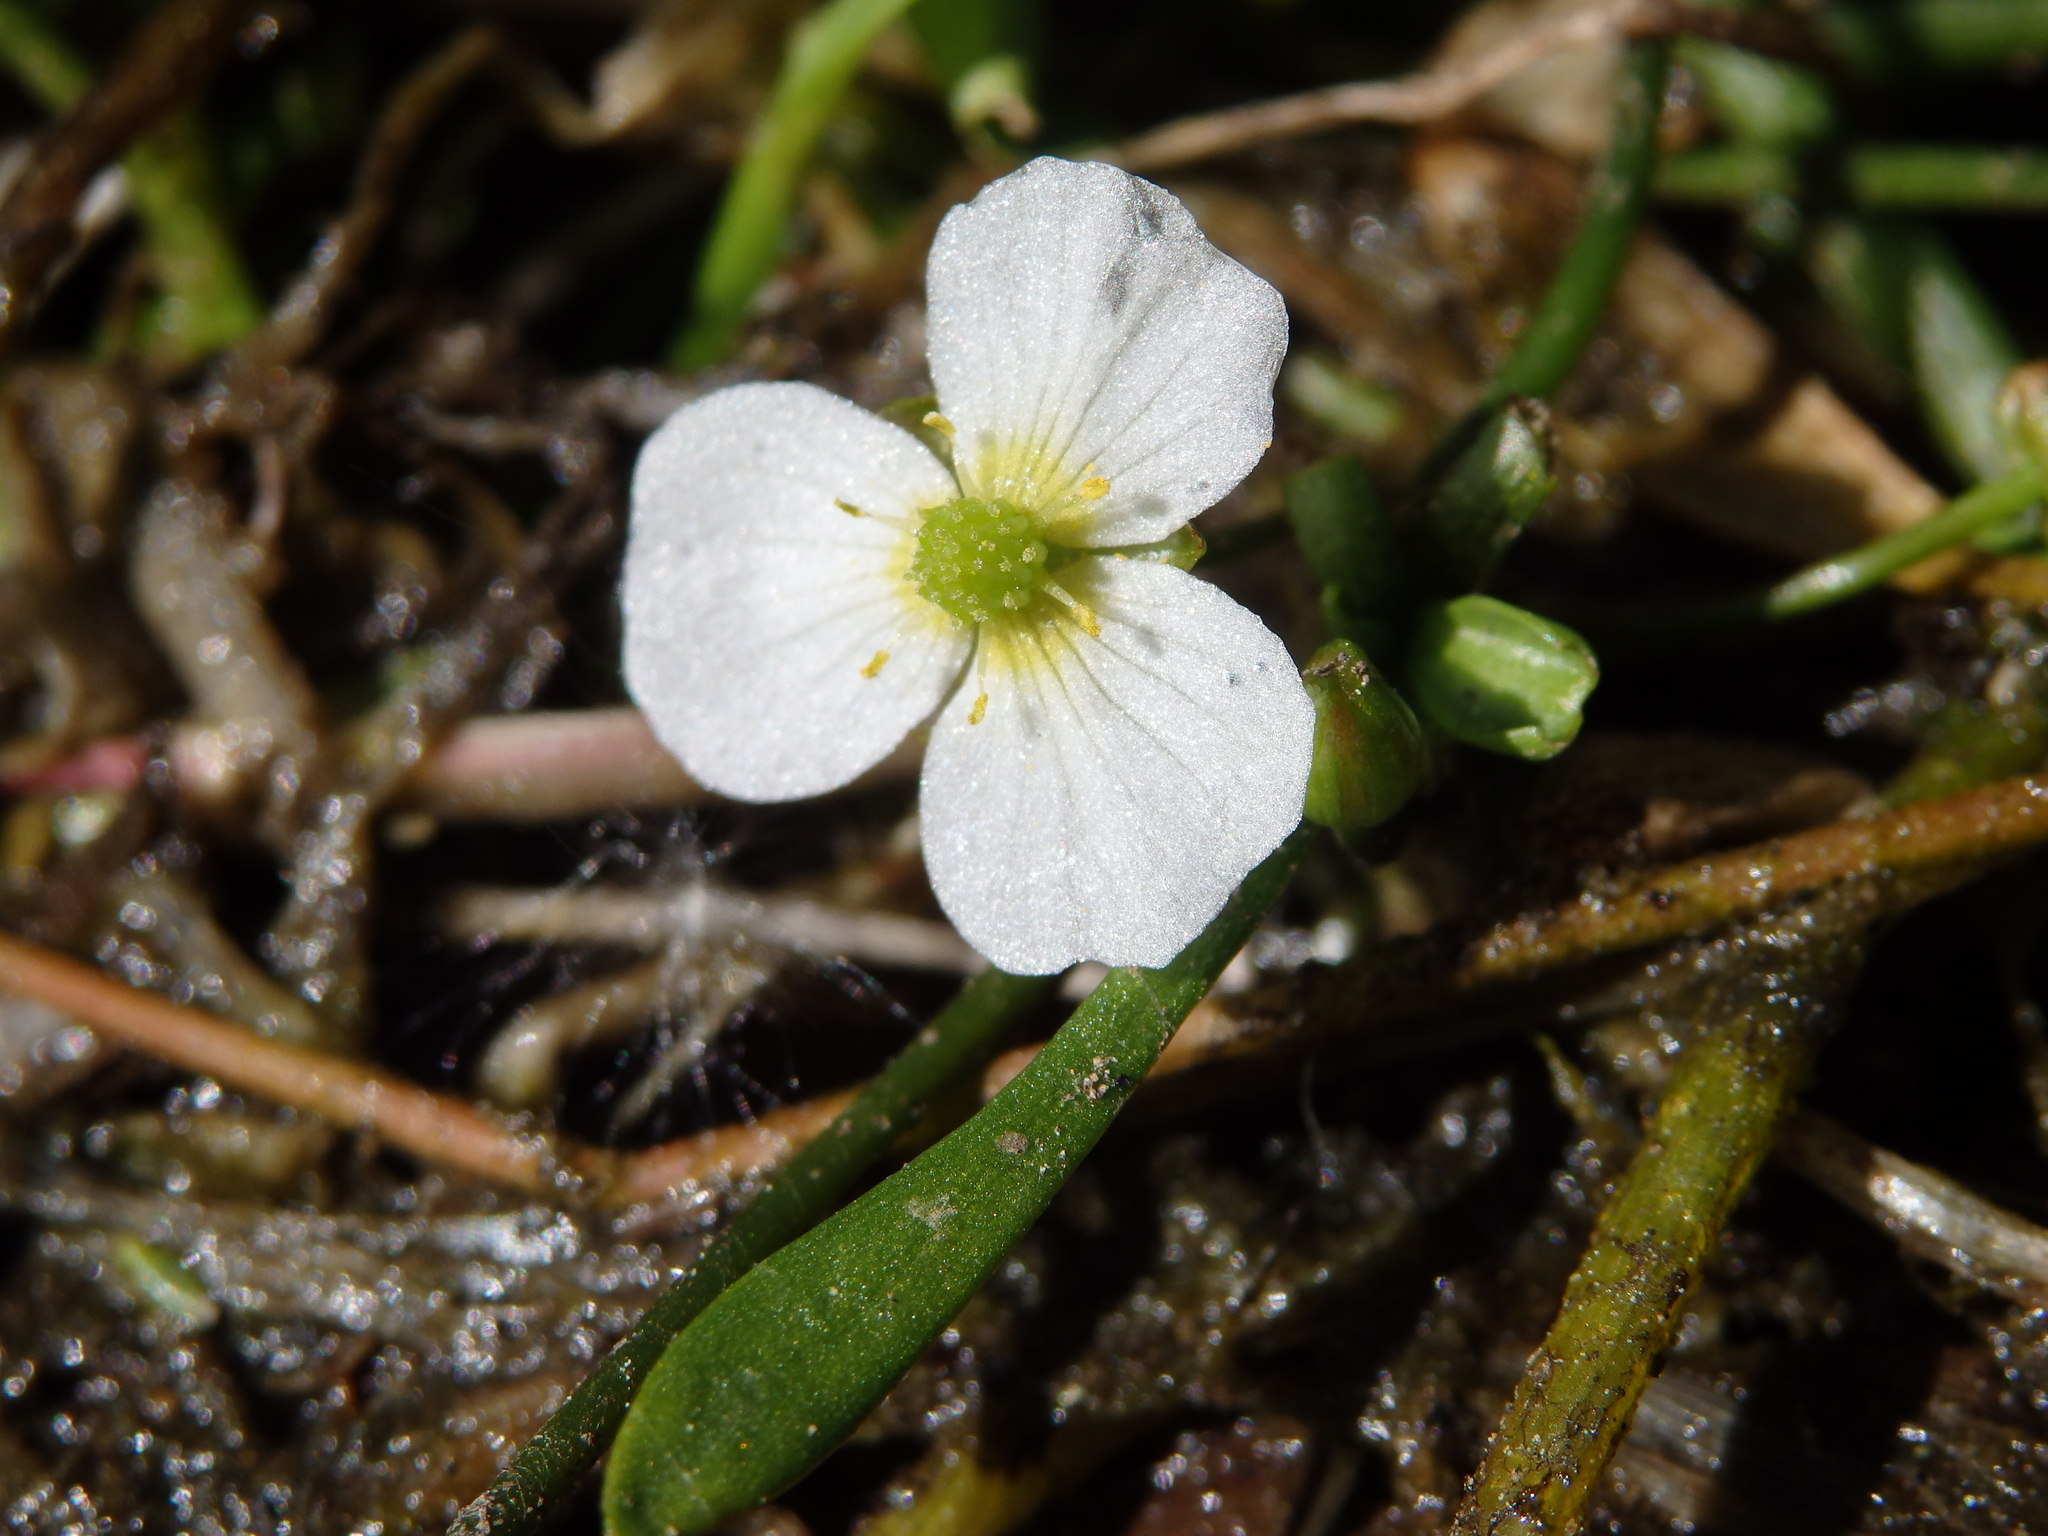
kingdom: Plantae
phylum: Tracheophyta
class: Liliopsida
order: Alismatales
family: Alismataceae
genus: Baldellia
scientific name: Baldellia alpestris
